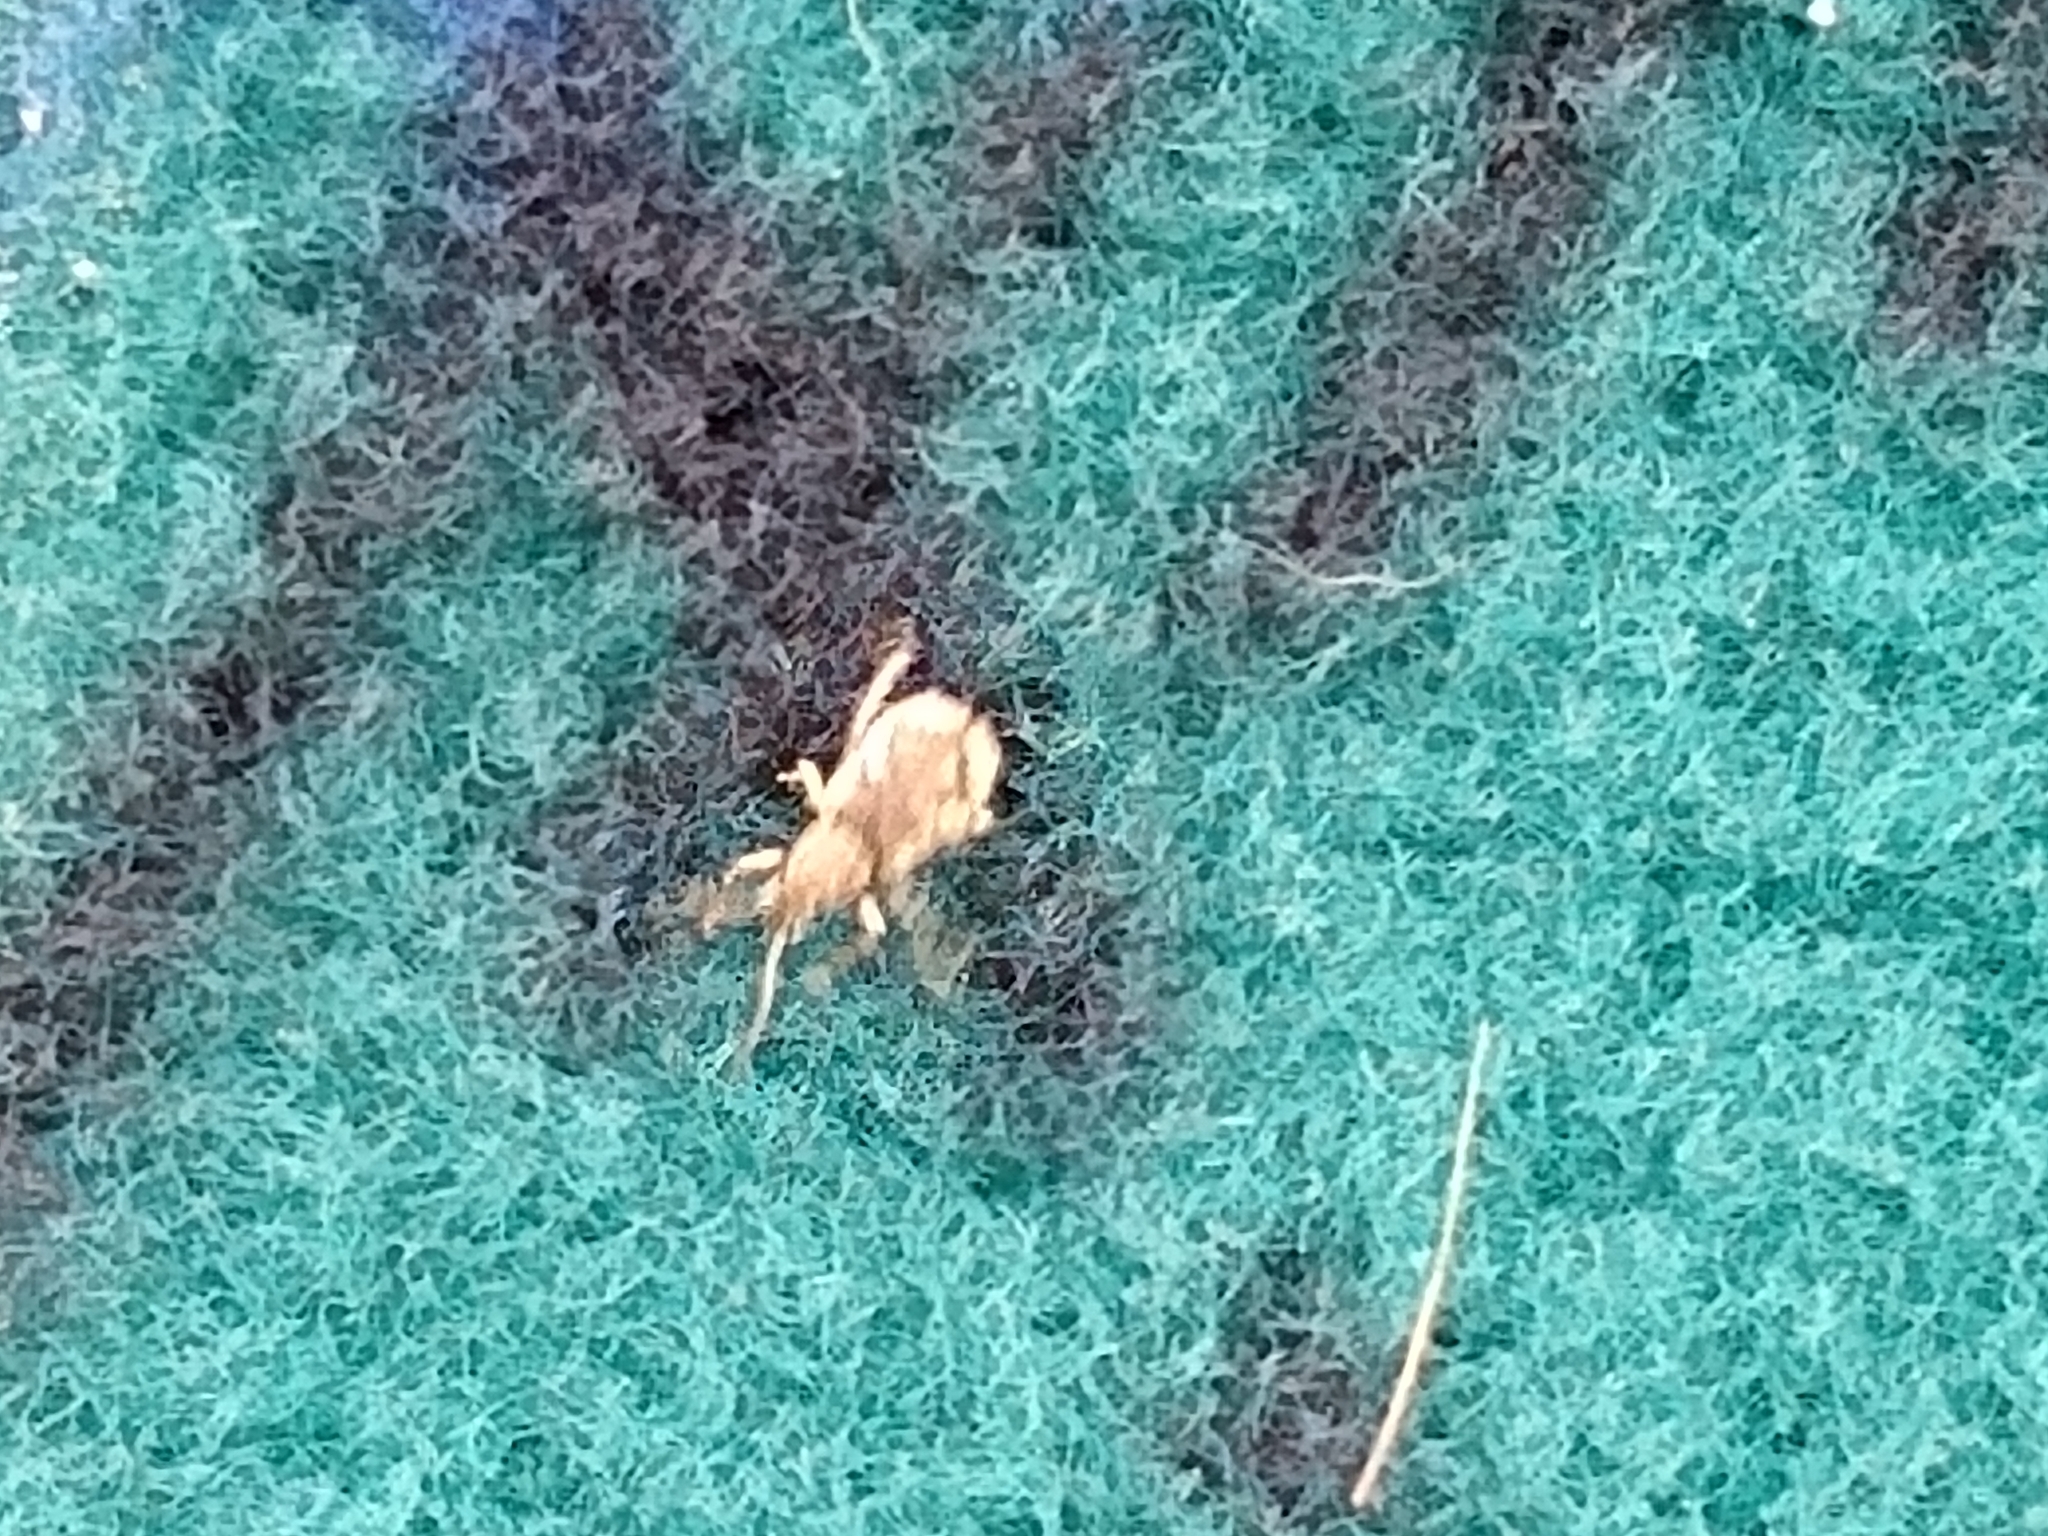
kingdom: Animalia
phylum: Arthropoda
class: Insecta
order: Coleoptera
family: Curculionidae
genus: Pseudoedophrys
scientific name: Pseudoedophrys hilleri
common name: Weevil
